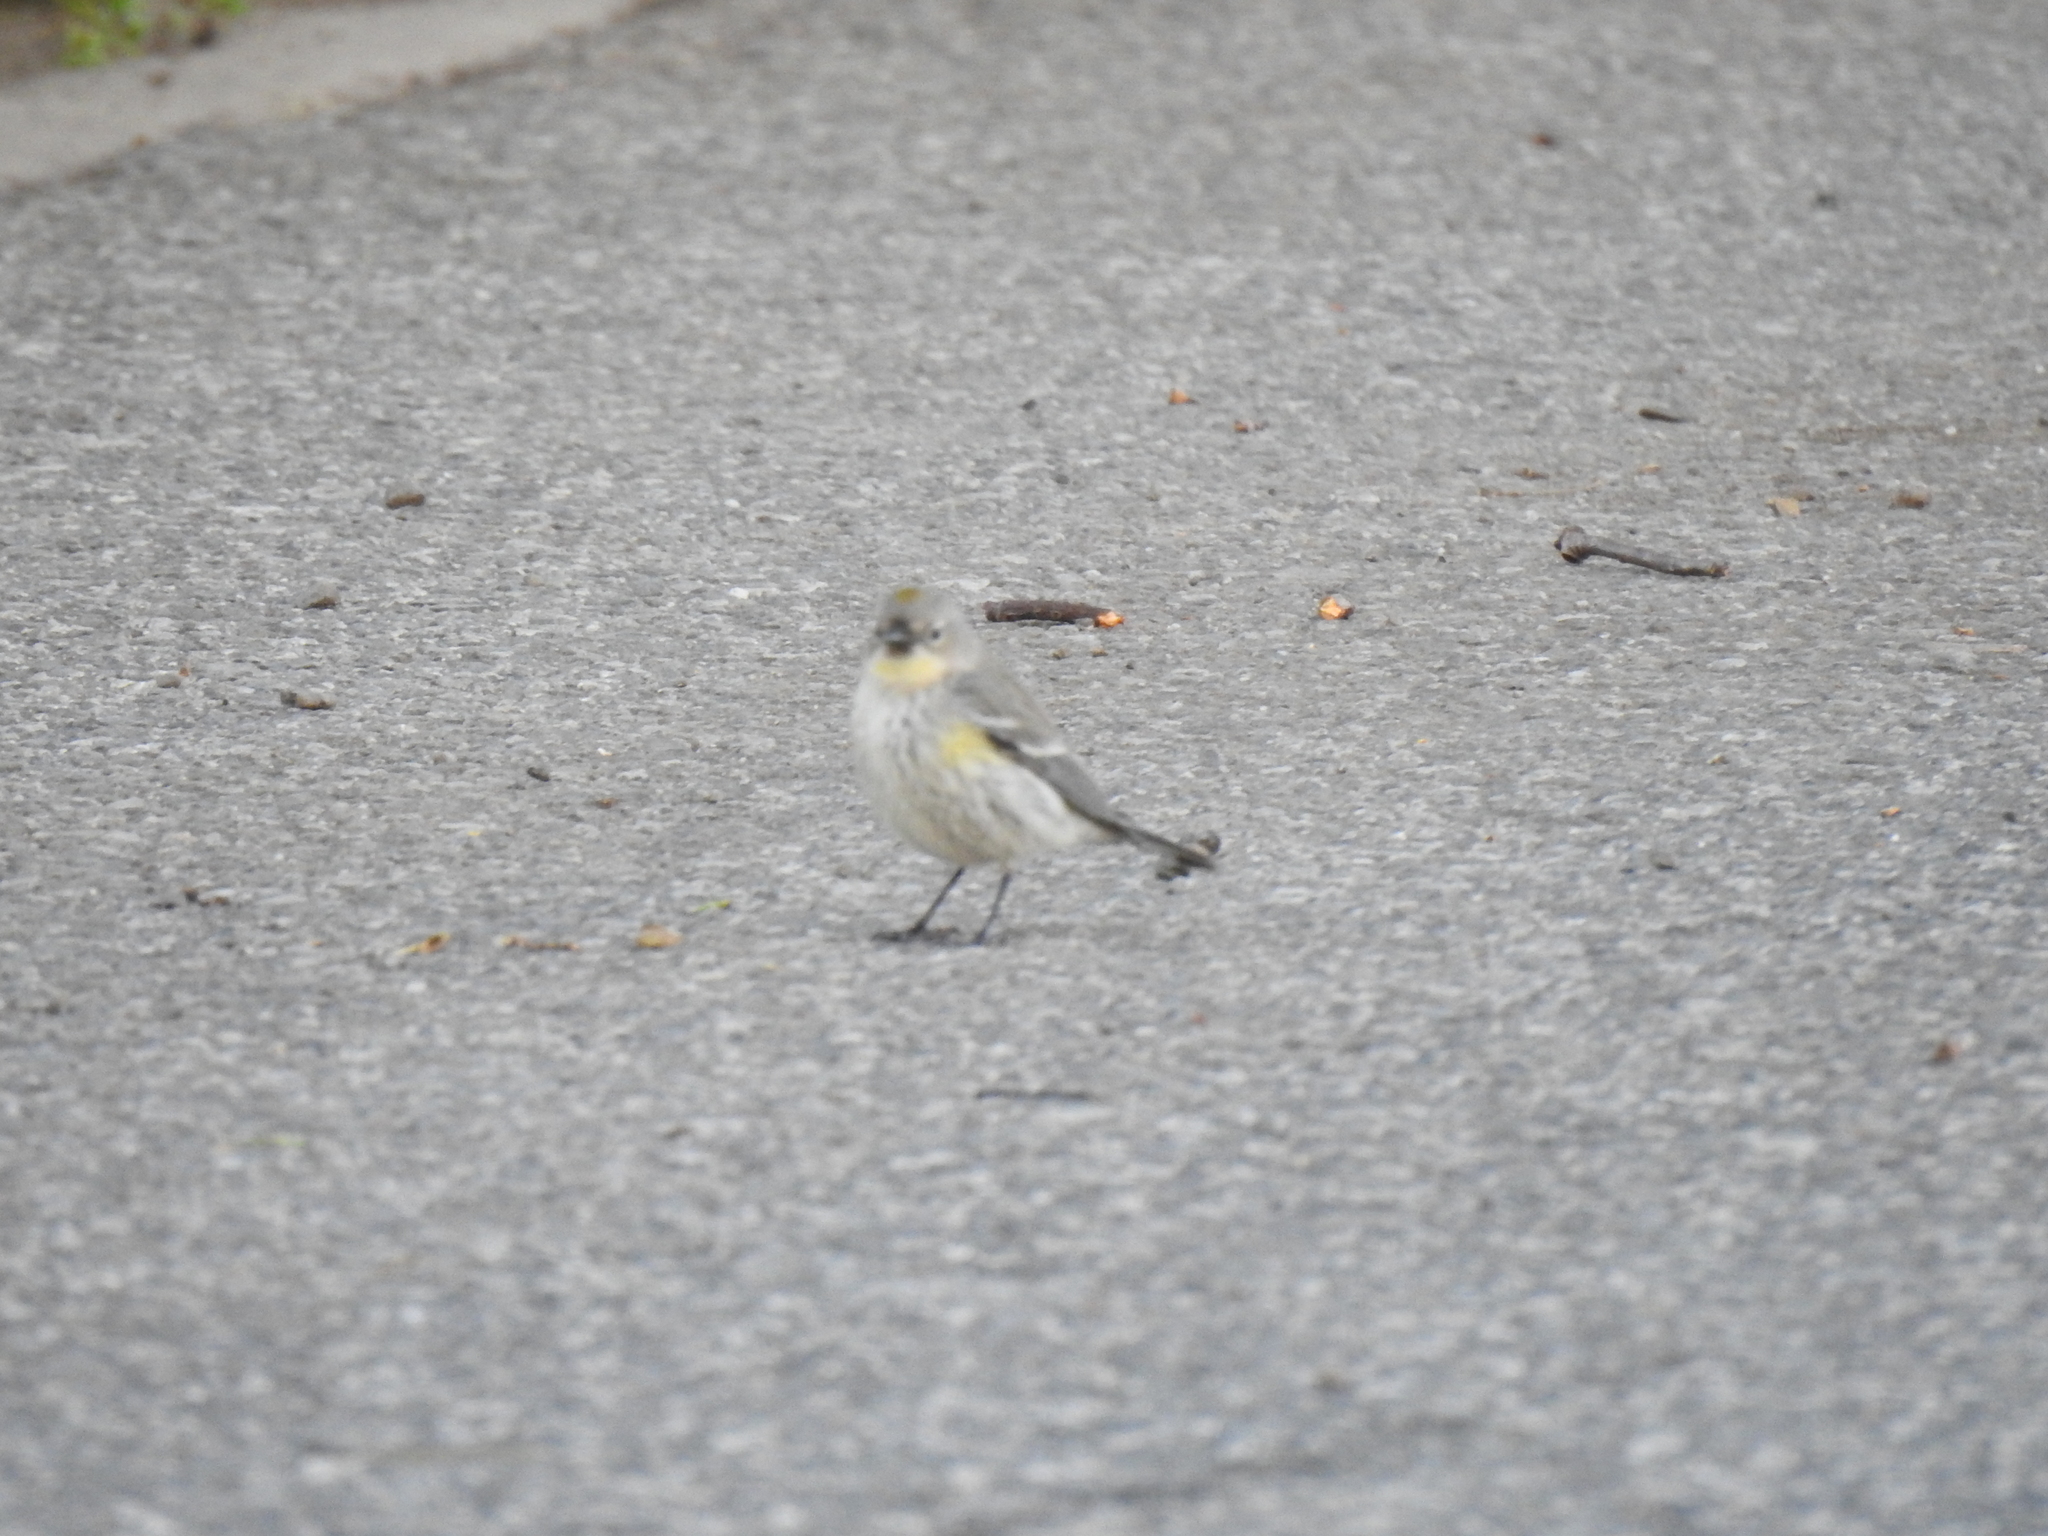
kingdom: Animalia
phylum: Chordata
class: Aves
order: Passeriformes
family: Parulidae
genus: Setophaga
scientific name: Setophaga coronata
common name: Myrtle warbler
